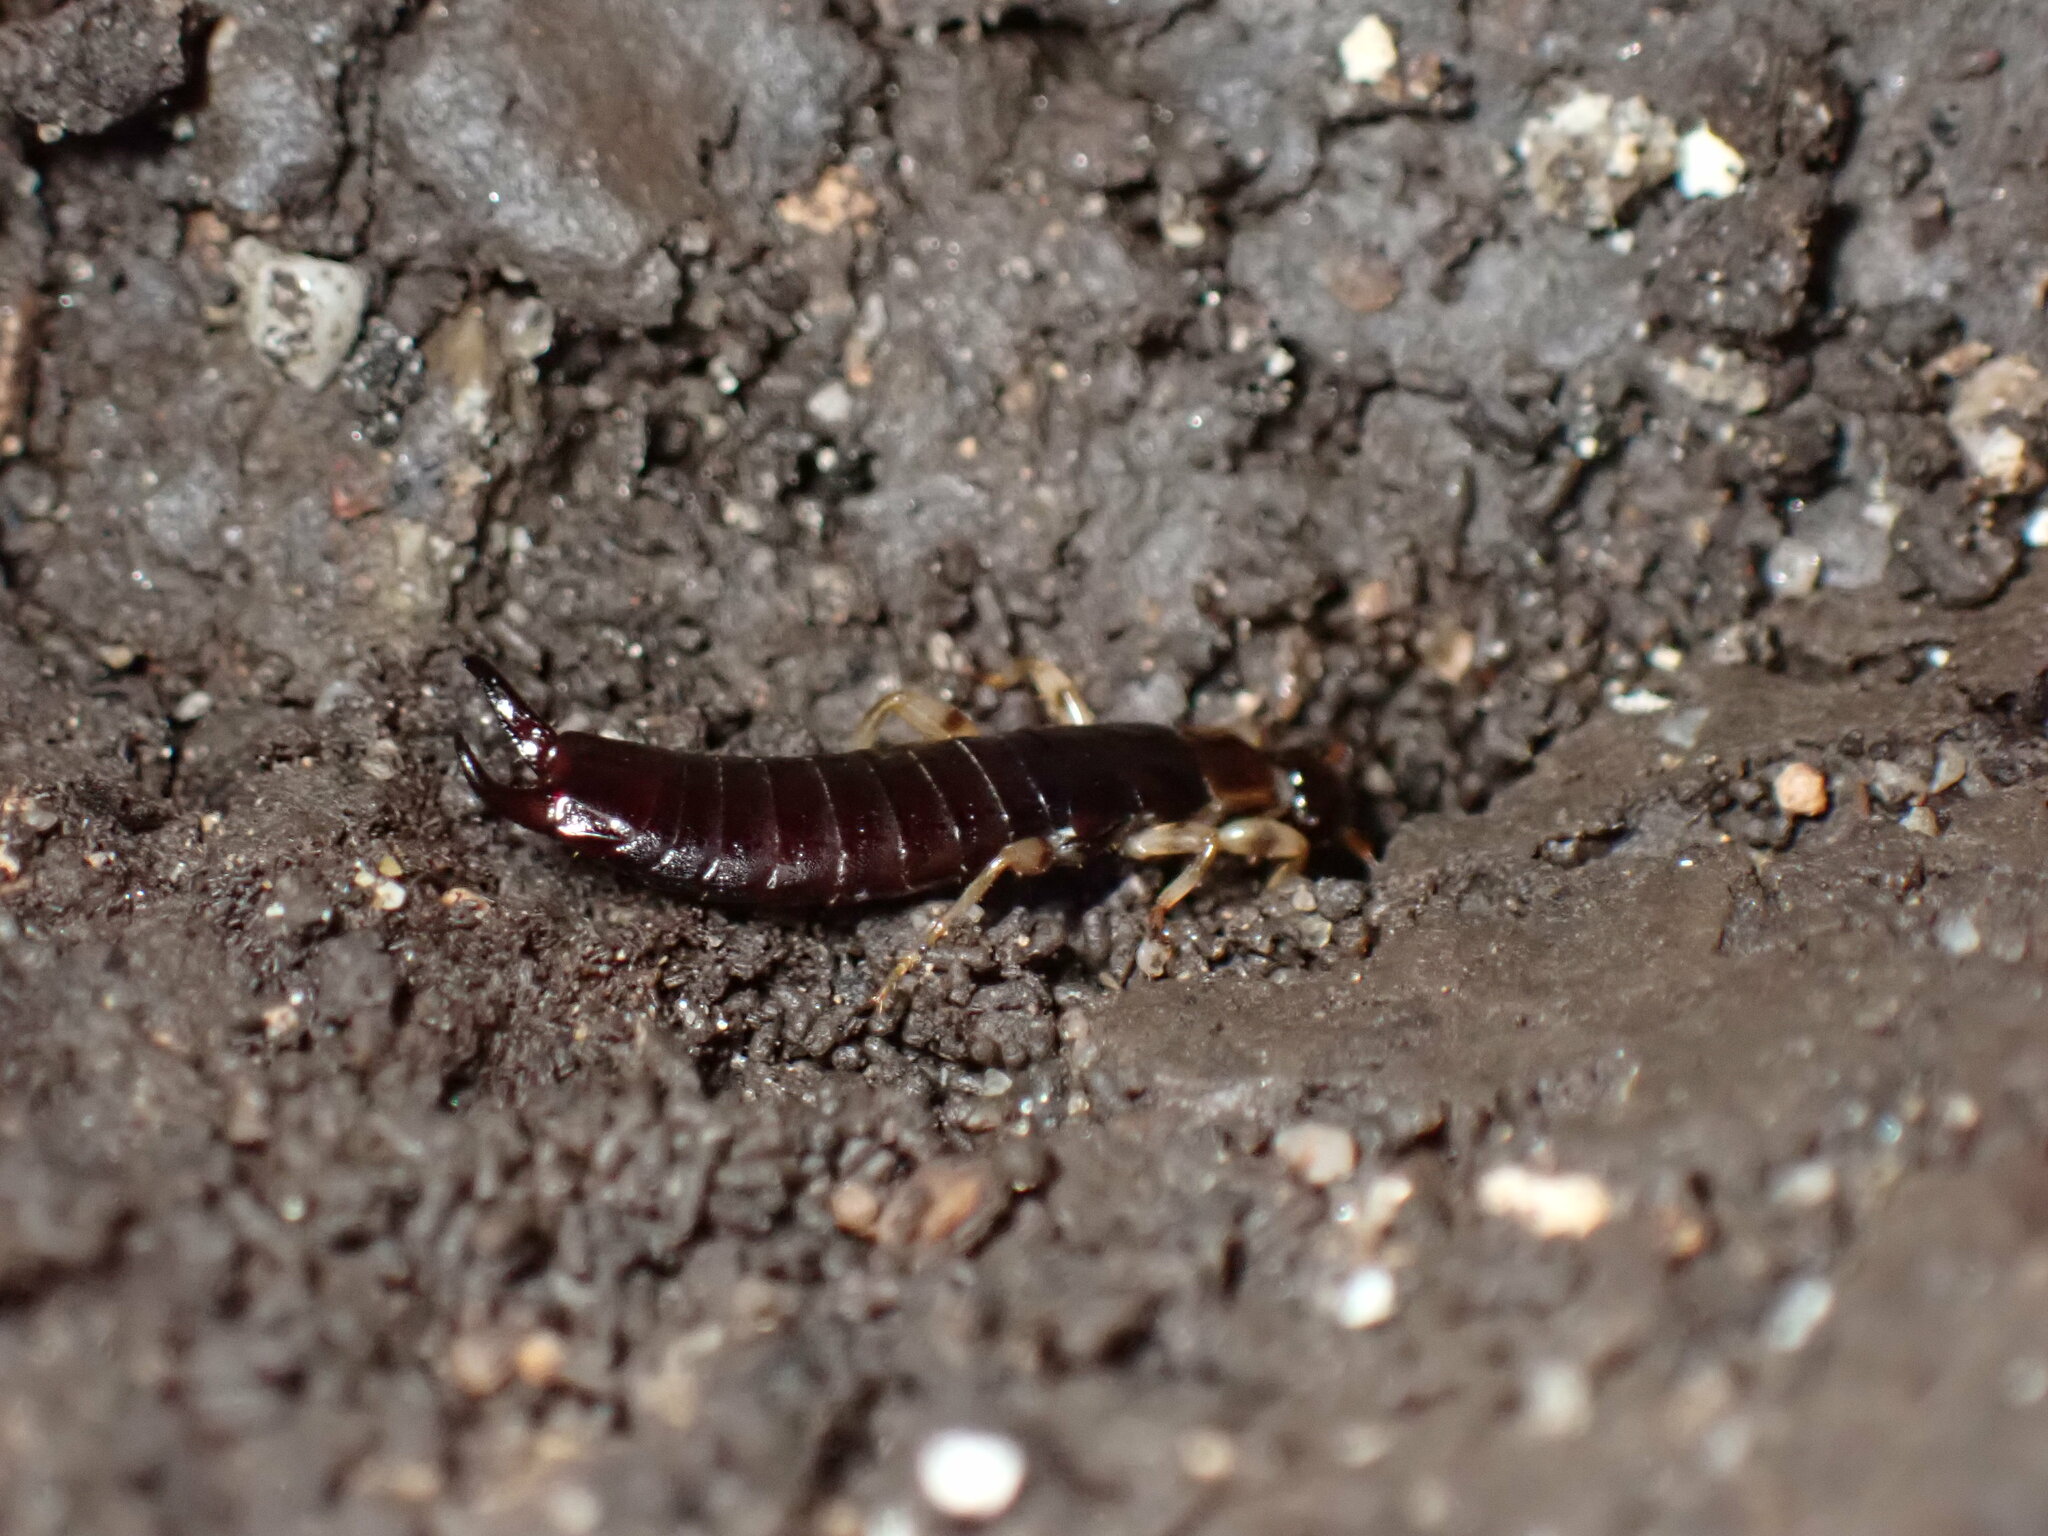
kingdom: Animalia
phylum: Arthropoda
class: Insecta
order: Dermaptera
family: Anisolabididae
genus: Euborellia
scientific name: Euborellia annulipes
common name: Ringlegged earwig
